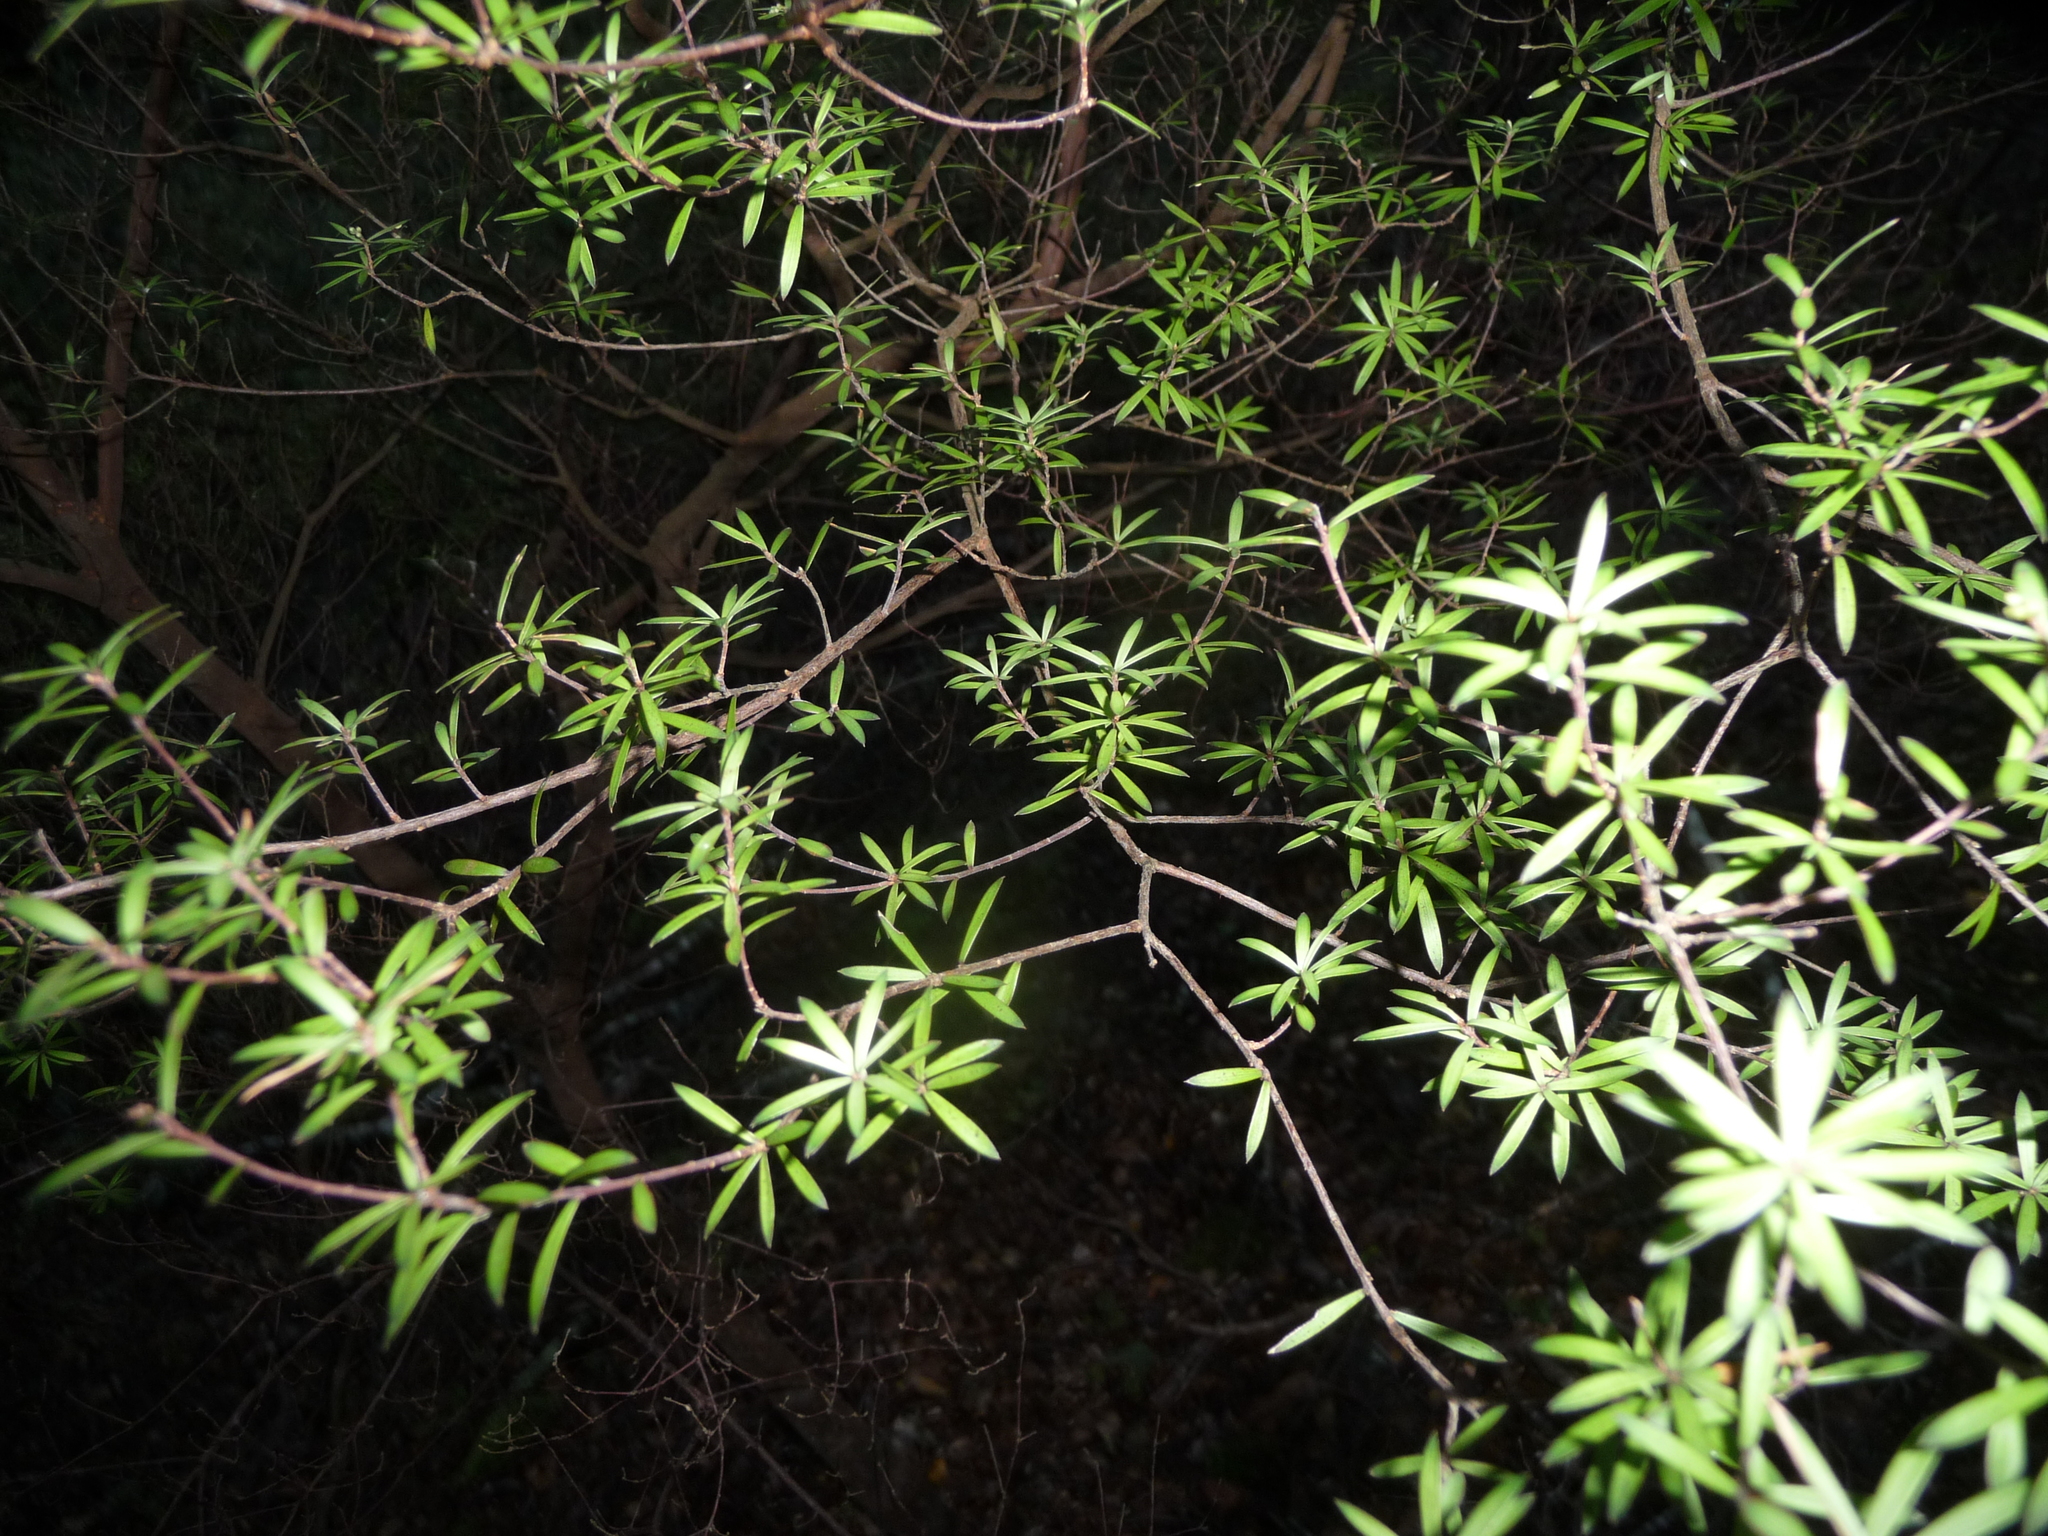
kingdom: Plantae
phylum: Tracheophyta
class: Magnoliopsida
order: Ericales
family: Ericaceae
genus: Leucopogon
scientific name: Leucopogon fasciculatus
